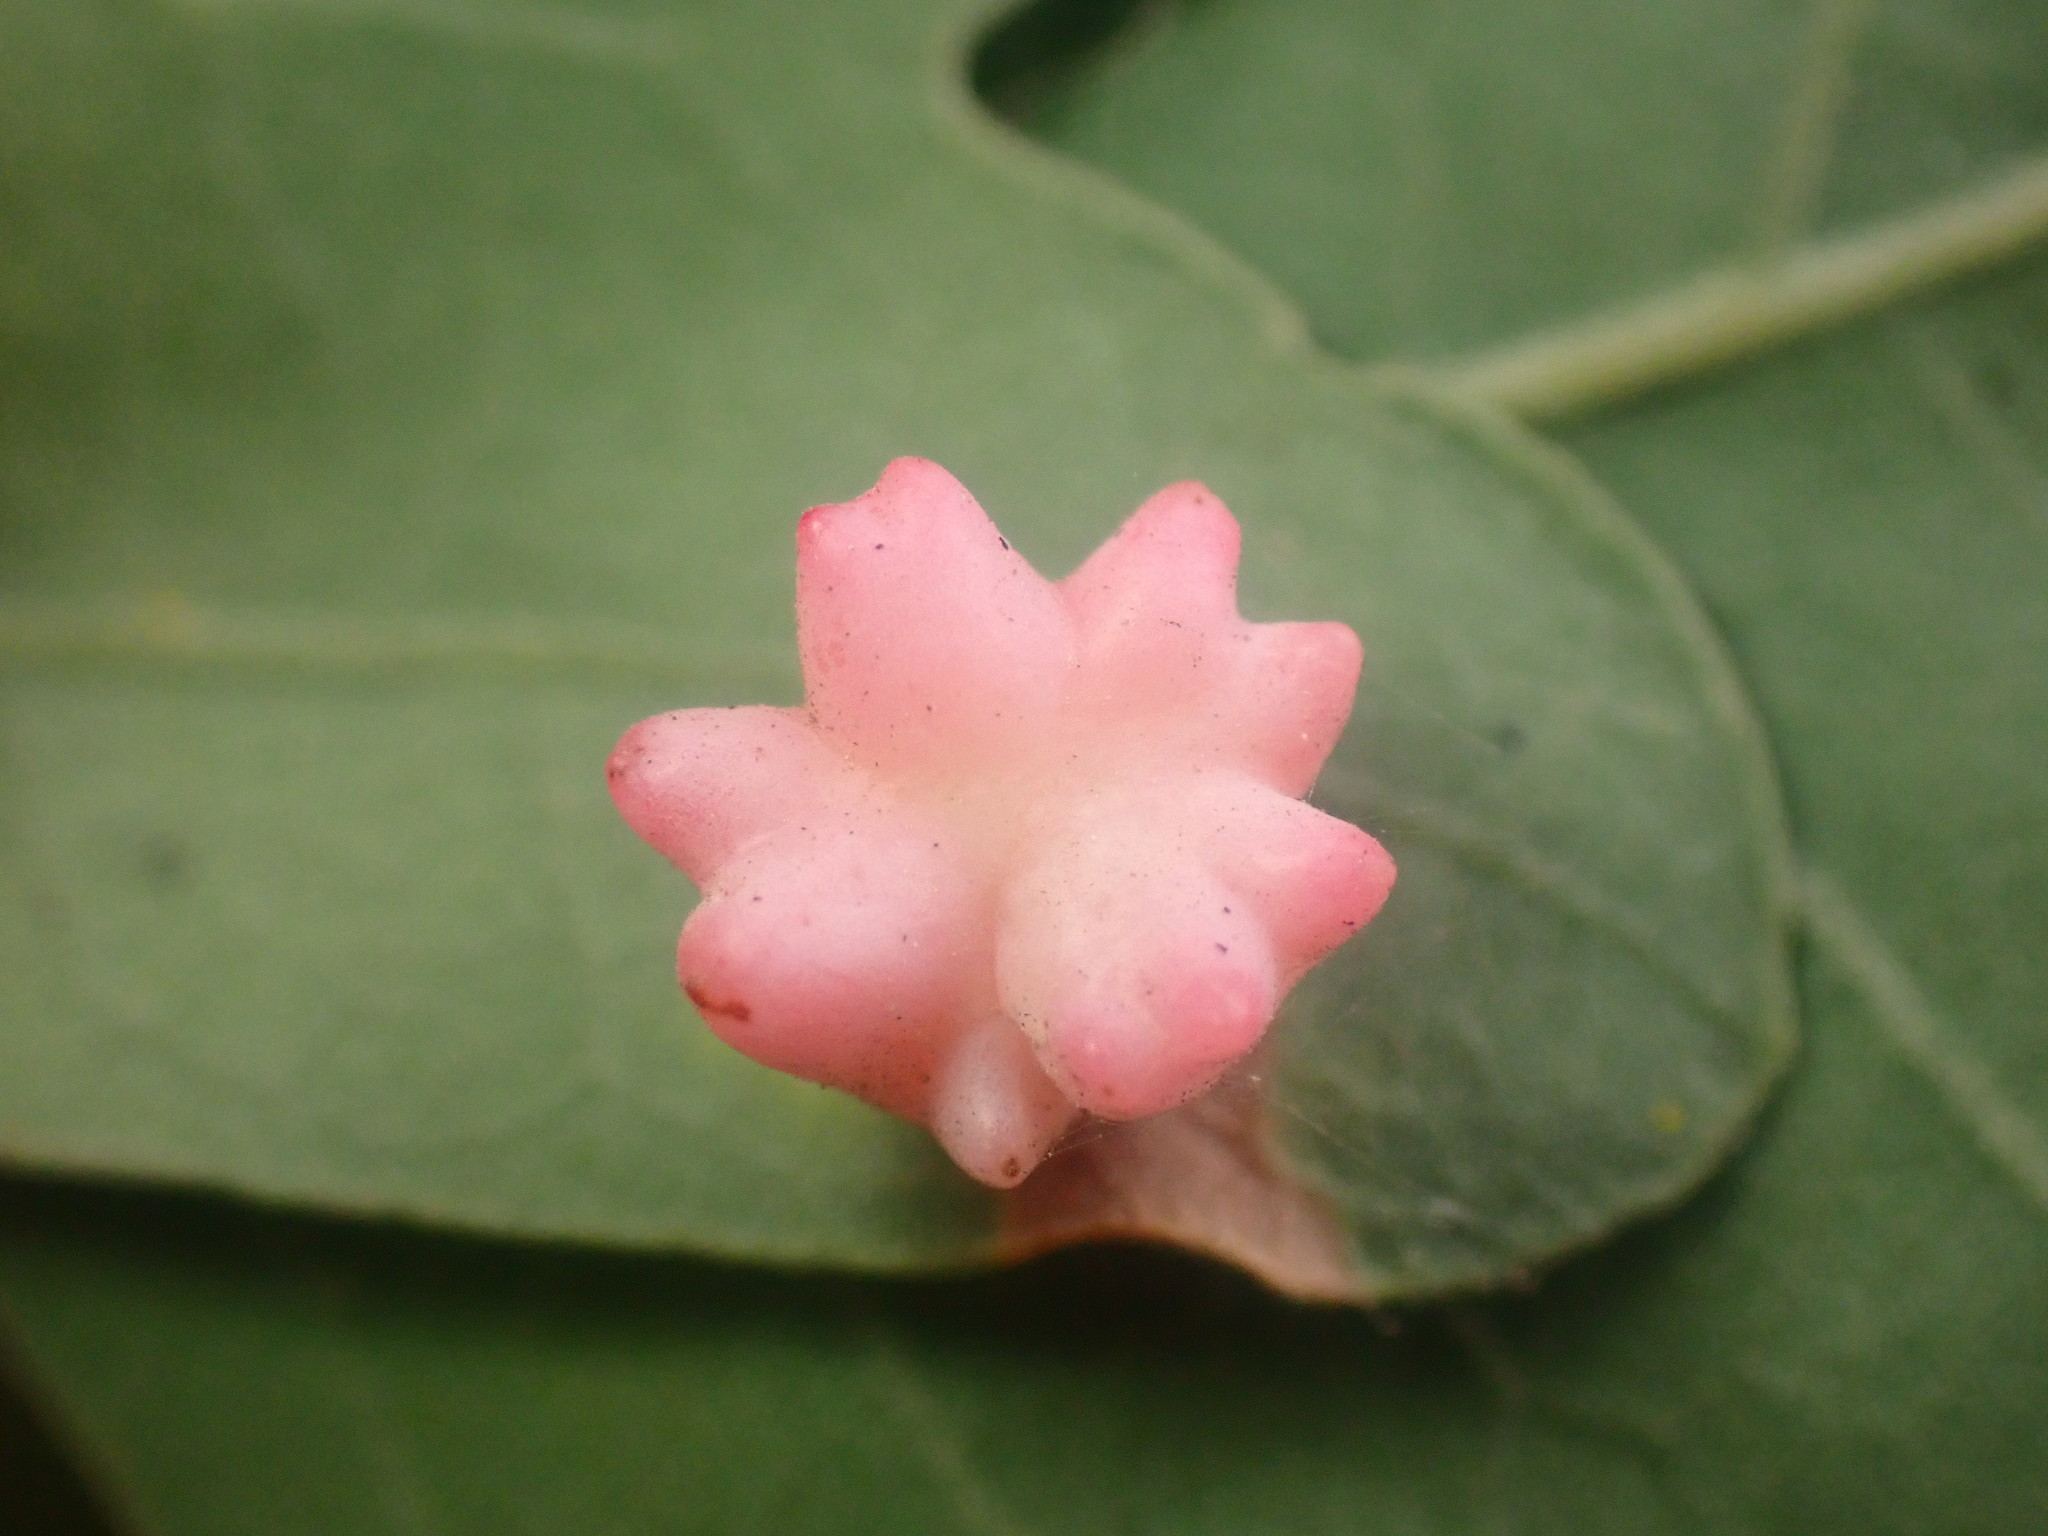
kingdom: Animalia
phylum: Arthropoda
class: Insecta
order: Hymenoptera
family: Cynipidae
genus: Cynips
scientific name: Cynips douglasi
